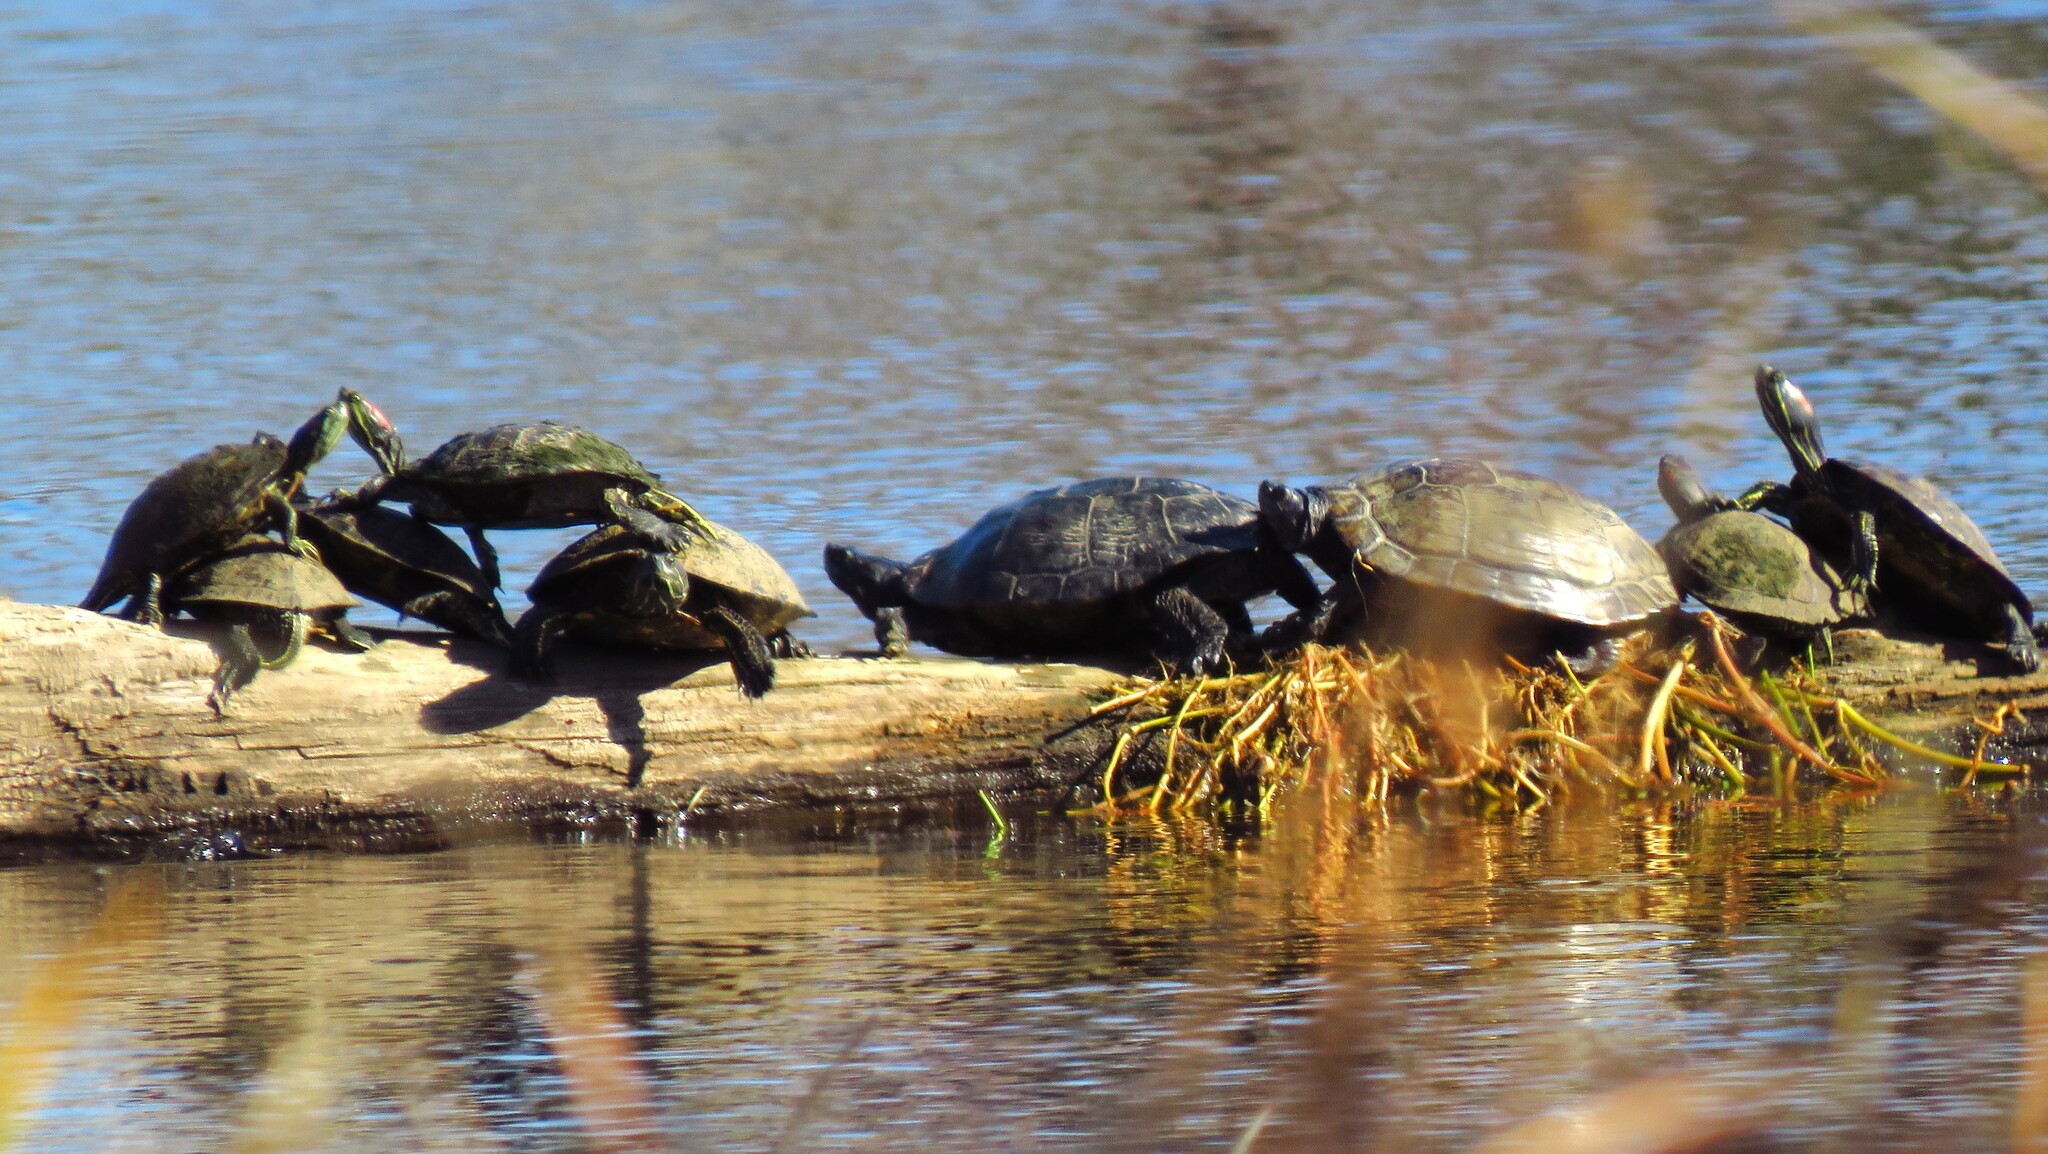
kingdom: Animalia
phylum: Chordata
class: Testudines
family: Emydidae
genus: Trachemys
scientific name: Trachemys scripta
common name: Slider
